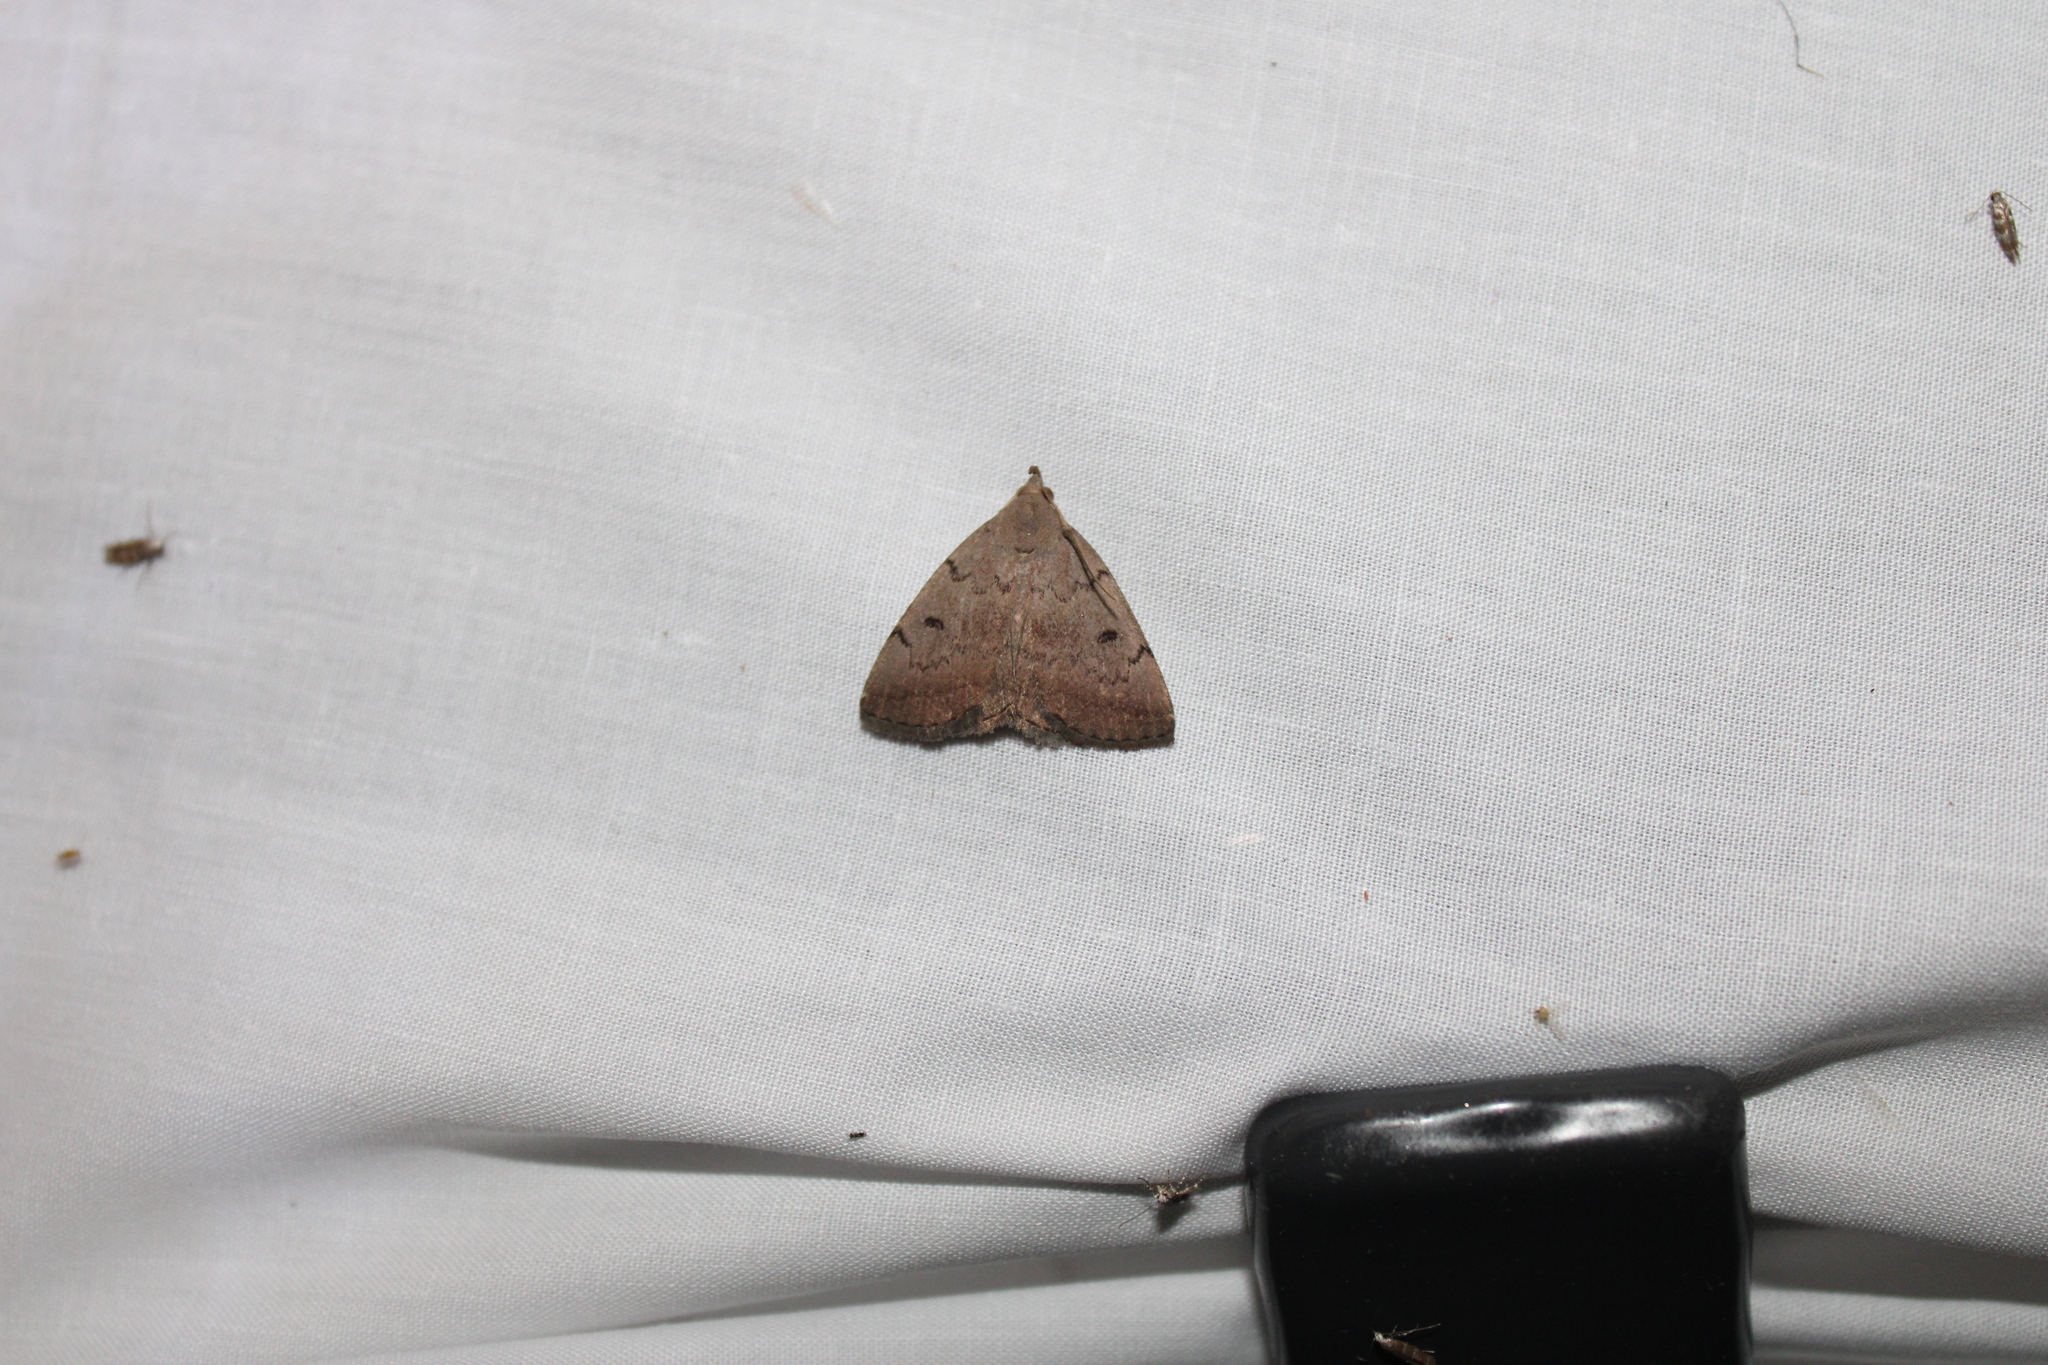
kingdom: Animalia
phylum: Arthropoda
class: Insecta
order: Lepidoptera
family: Erebidae
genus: Zanclognatha
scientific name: Zanclognatha martha
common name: Pine barrens zanclognatha
